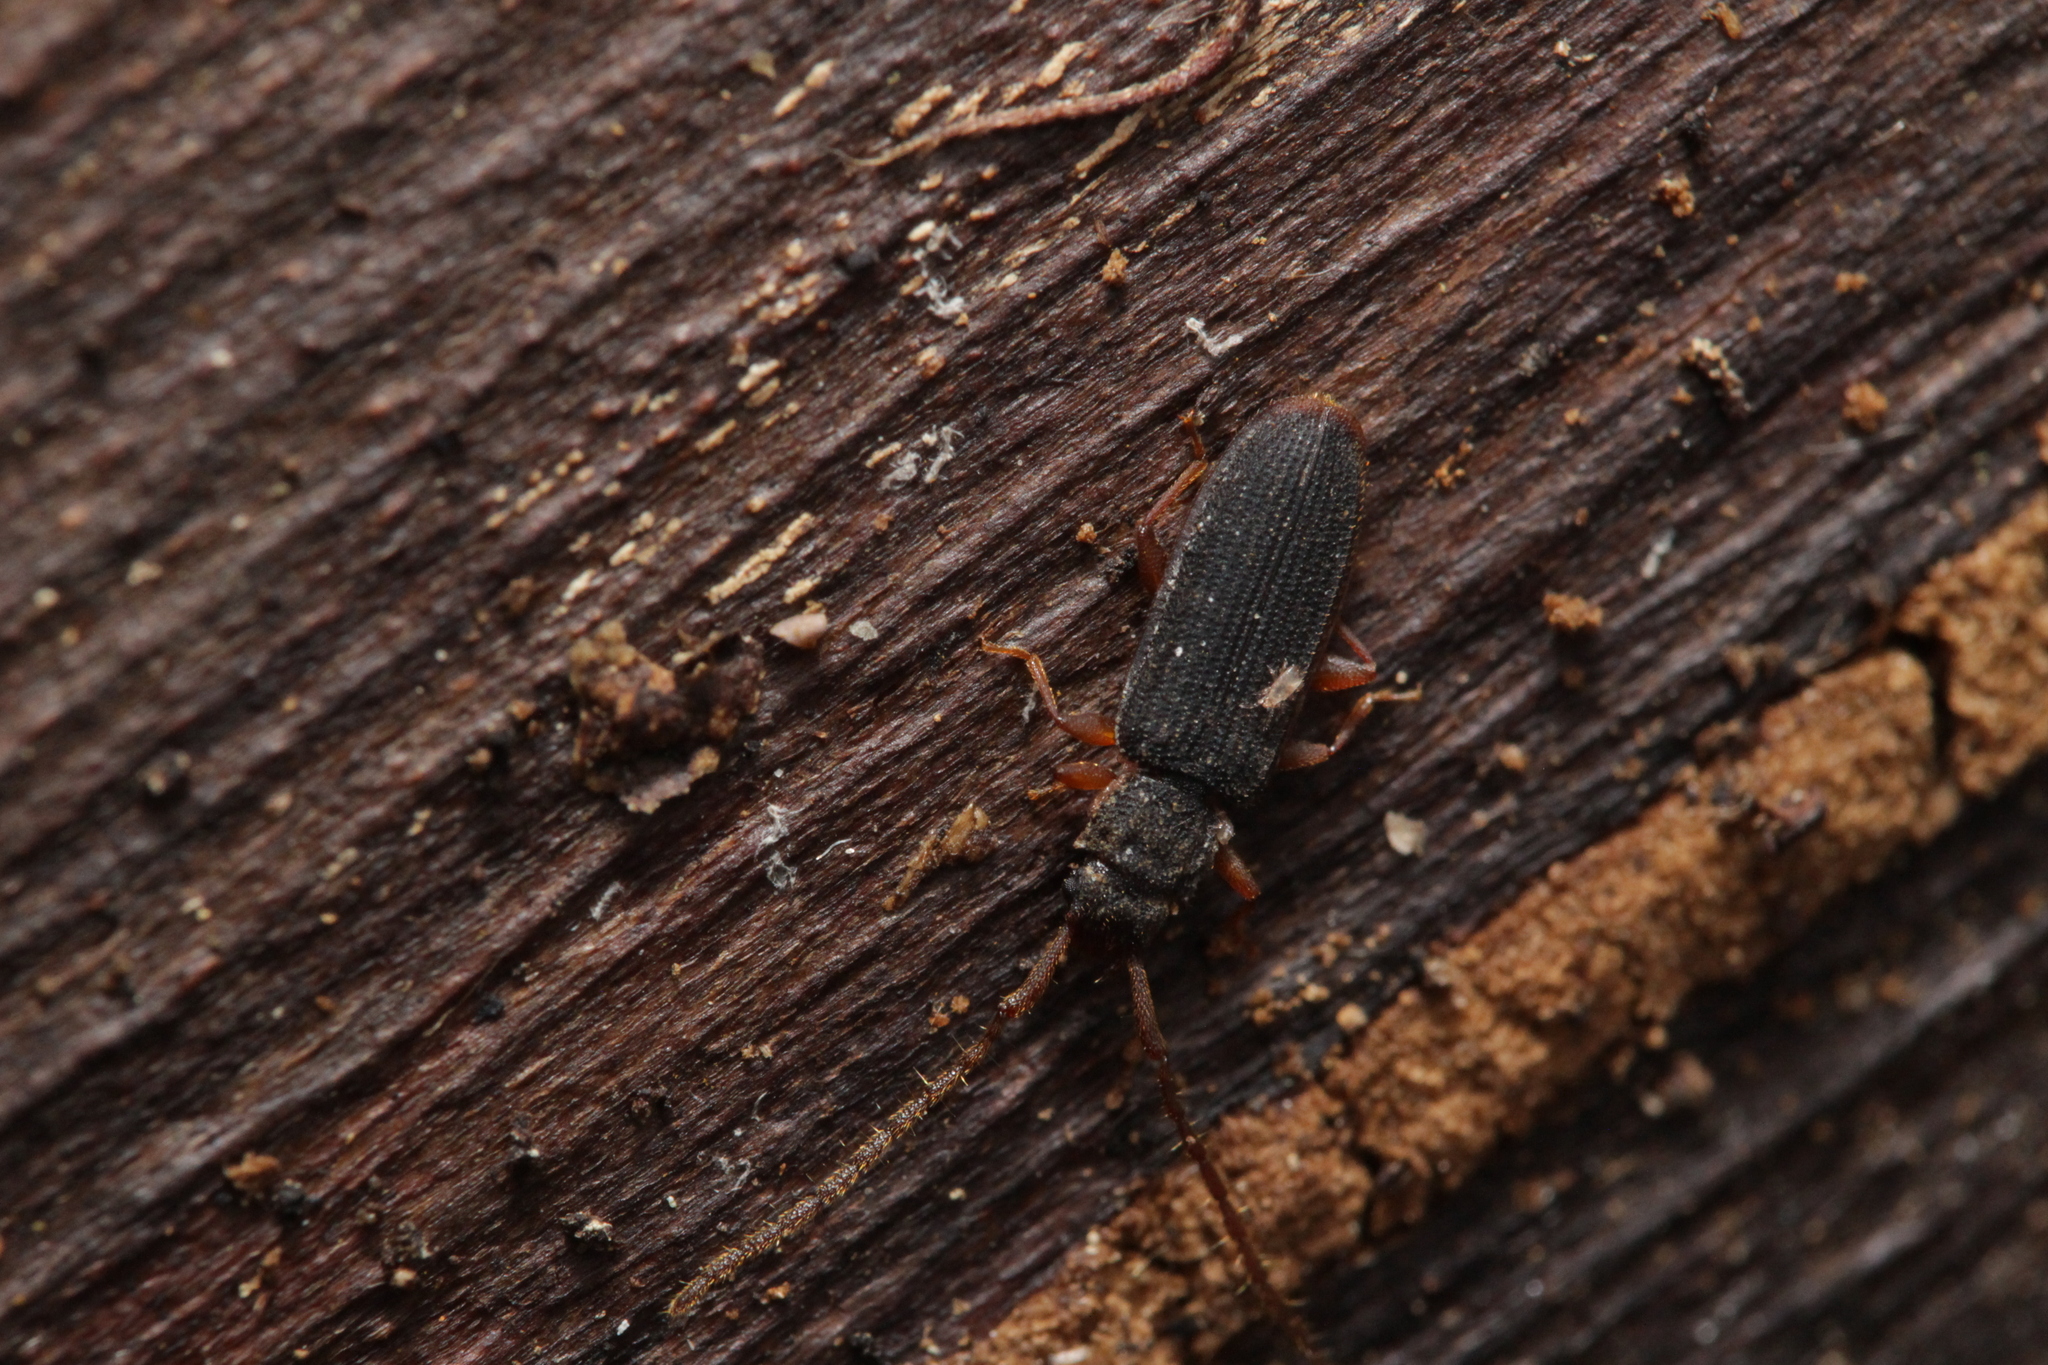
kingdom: Animalia
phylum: Arthropoda
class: Insecta
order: Coleoptera
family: Silvanidae
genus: Uleiota
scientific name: Uleiota planatus
